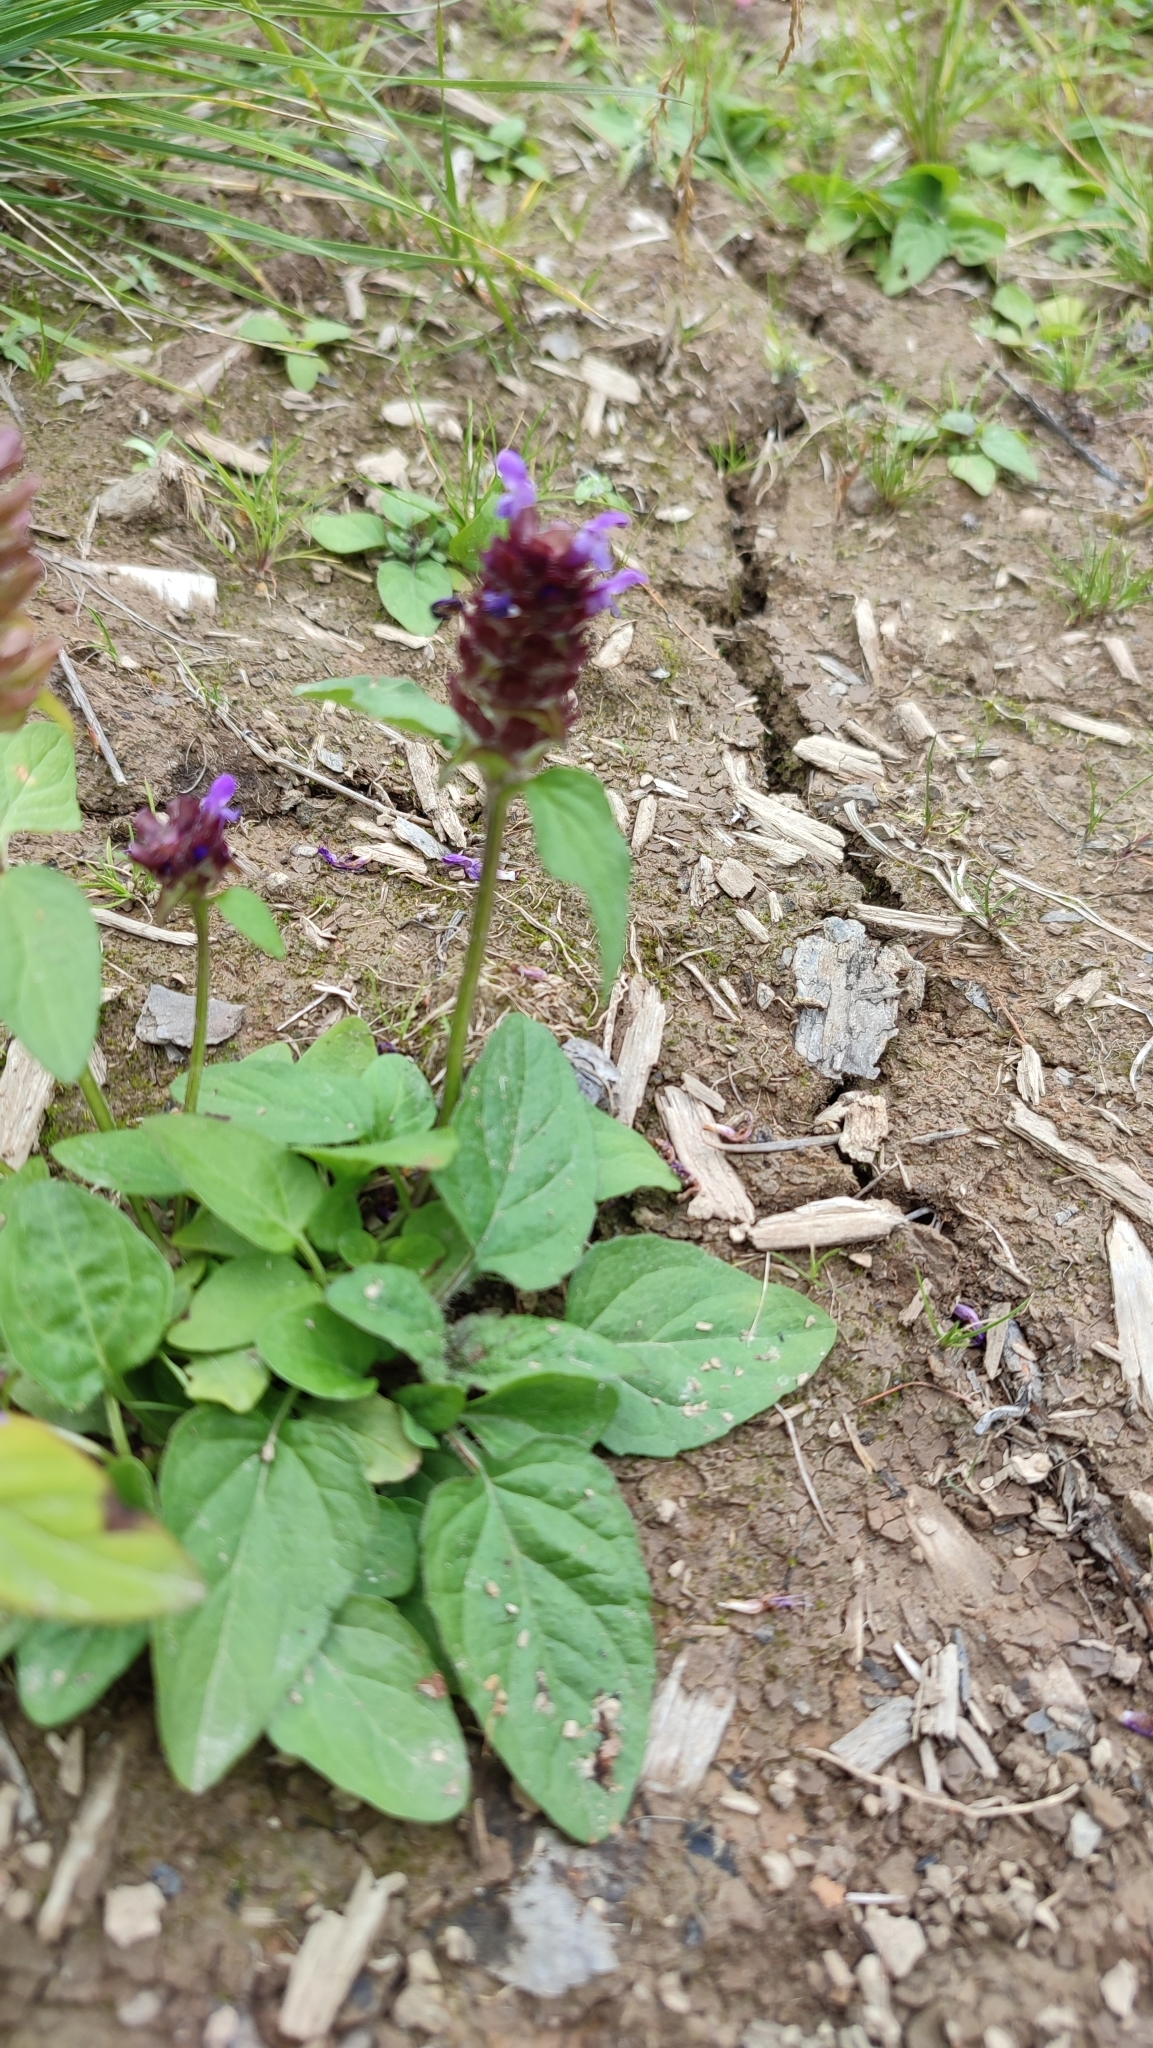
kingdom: Plantae
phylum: Tracheophyta
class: Magnoliopsida
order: Lamiales
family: Lamiaceae
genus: Prunella
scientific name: Prunella vulgaris
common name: Heal-all
